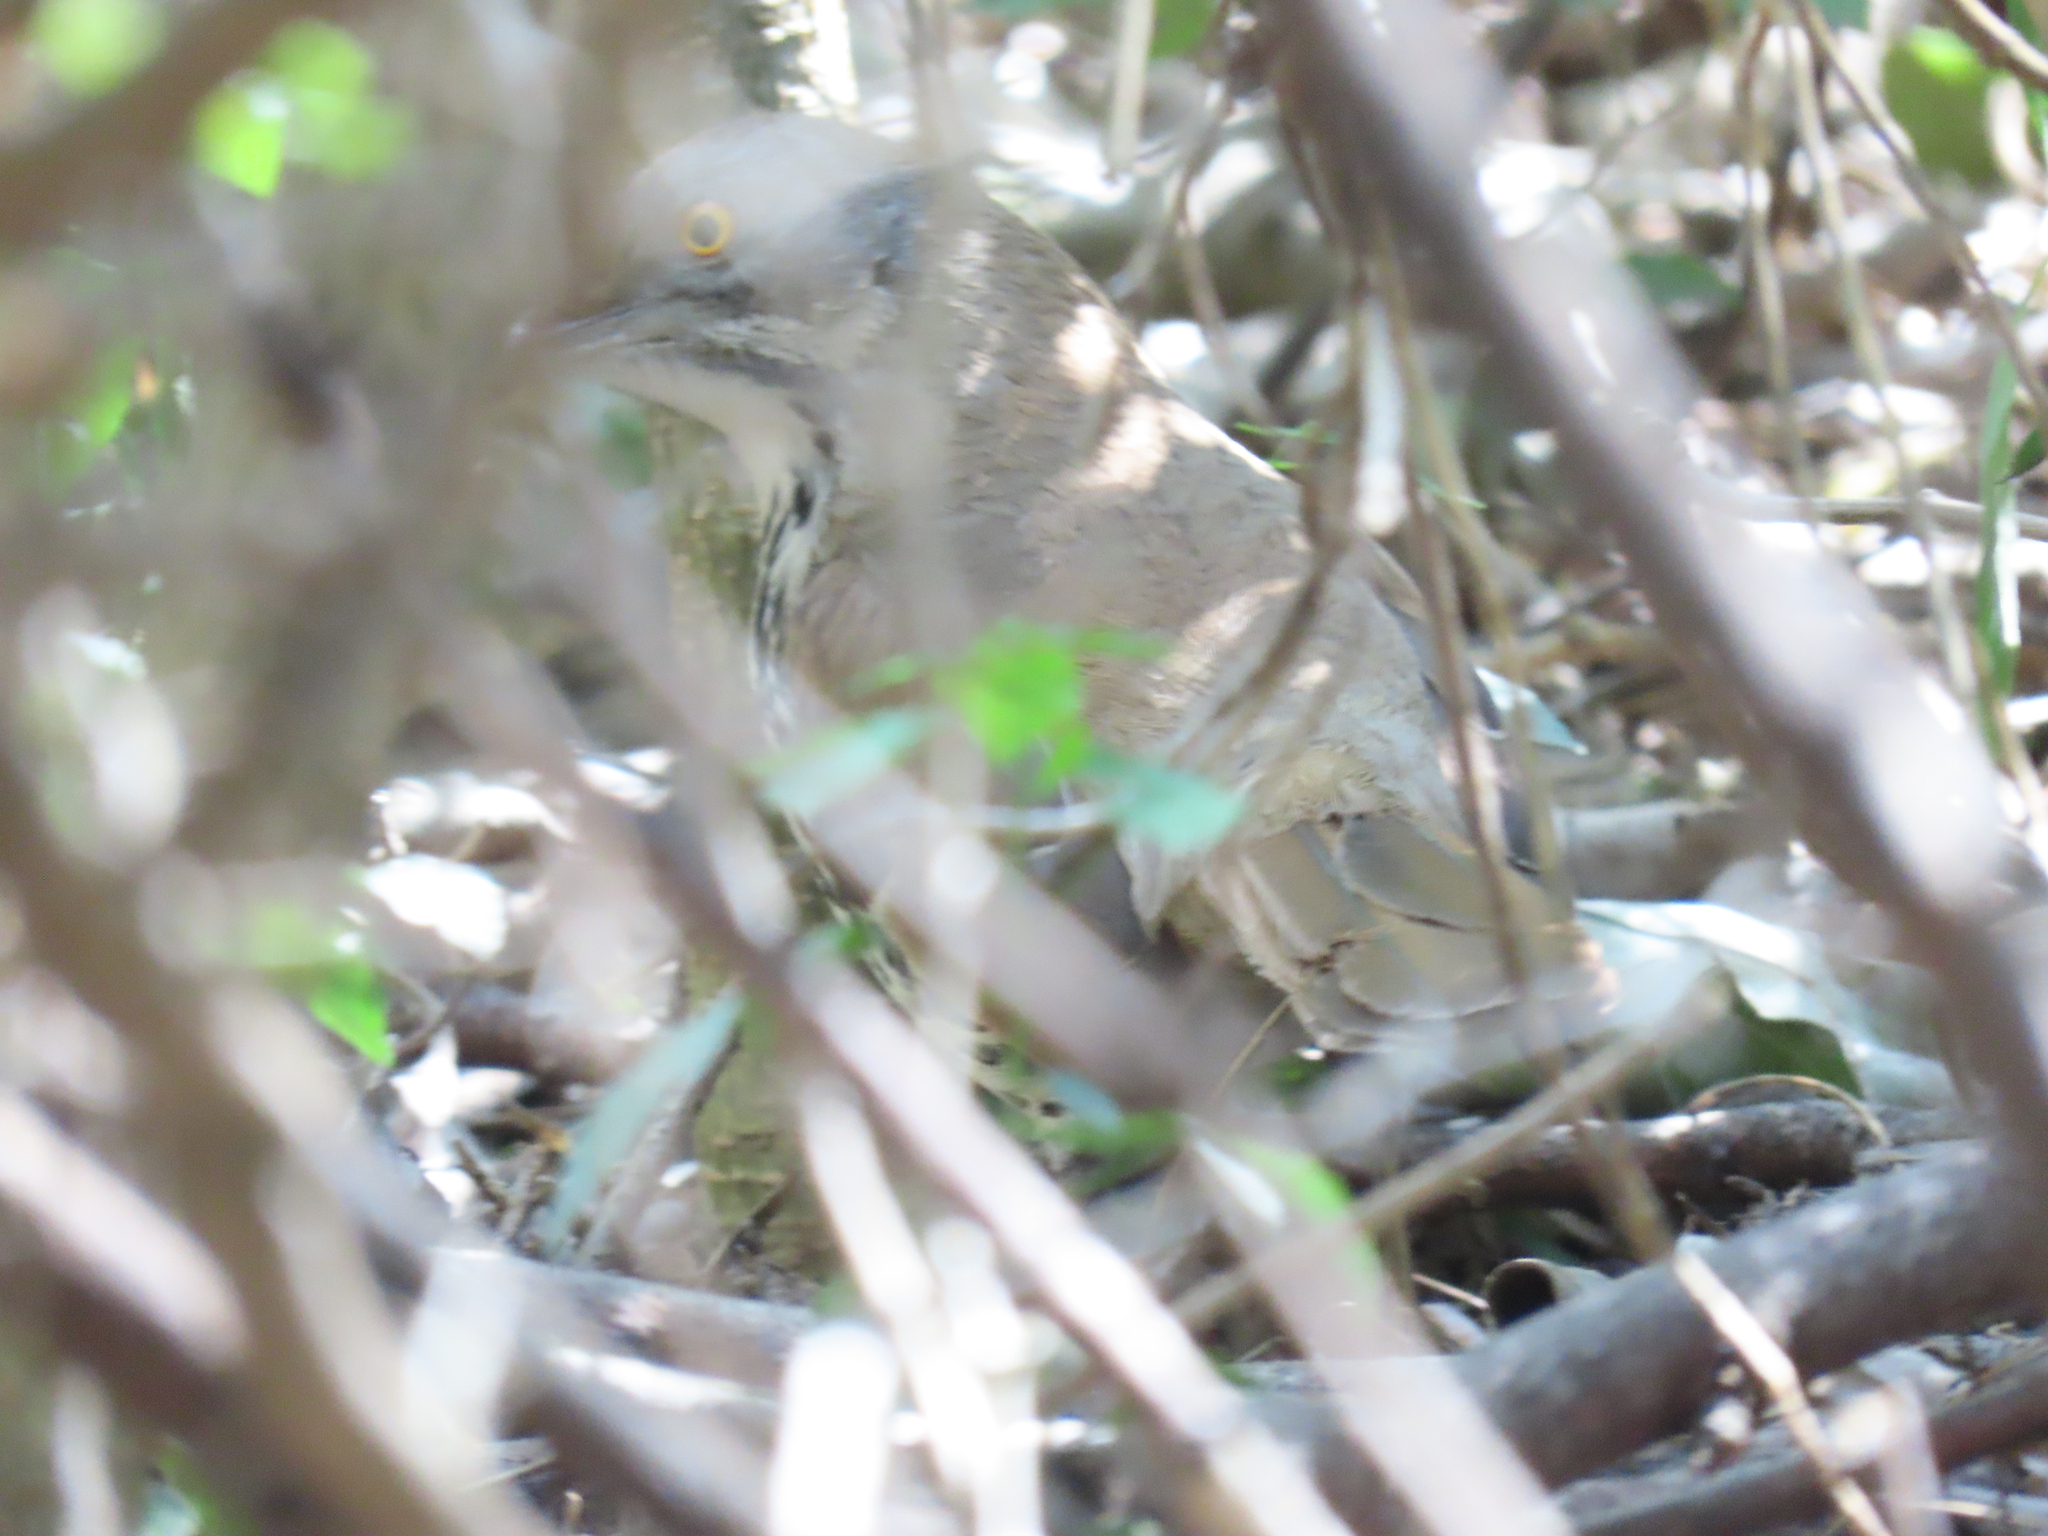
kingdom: Animalia
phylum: Chordata
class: Aves
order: Passeriformes
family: Mimidae
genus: Toxostoma
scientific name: Toxostoma longirostre
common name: Long-billed thrasher
